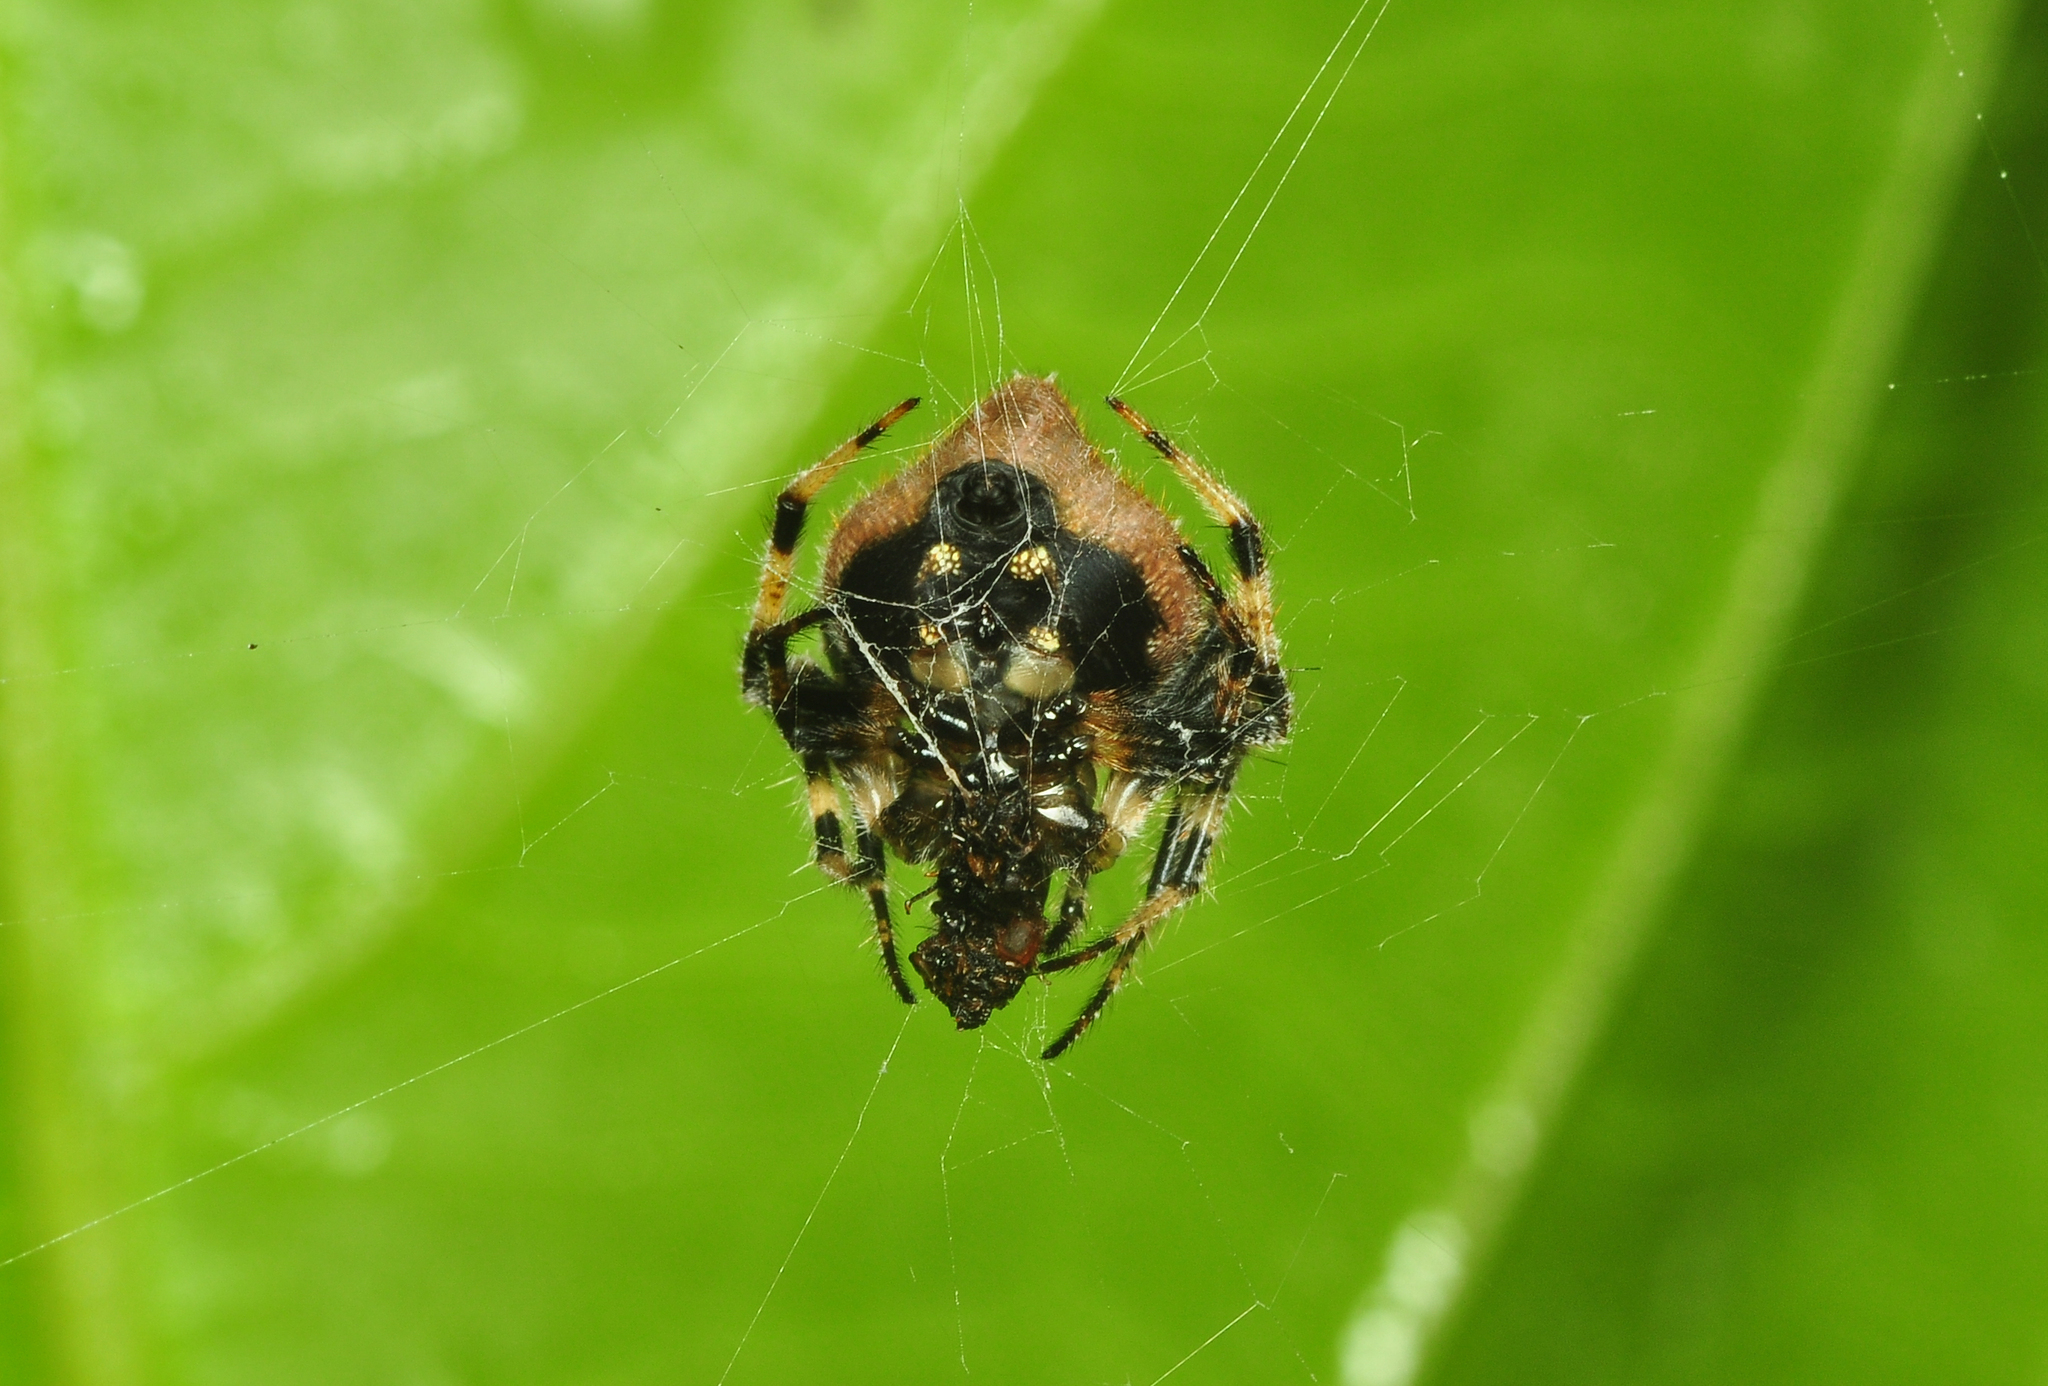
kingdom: Animalia
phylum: Arthropoda
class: Arachnida
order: Araneae
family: Araneidae
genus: Eriovixia
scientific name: Eriovixia laglaizei
